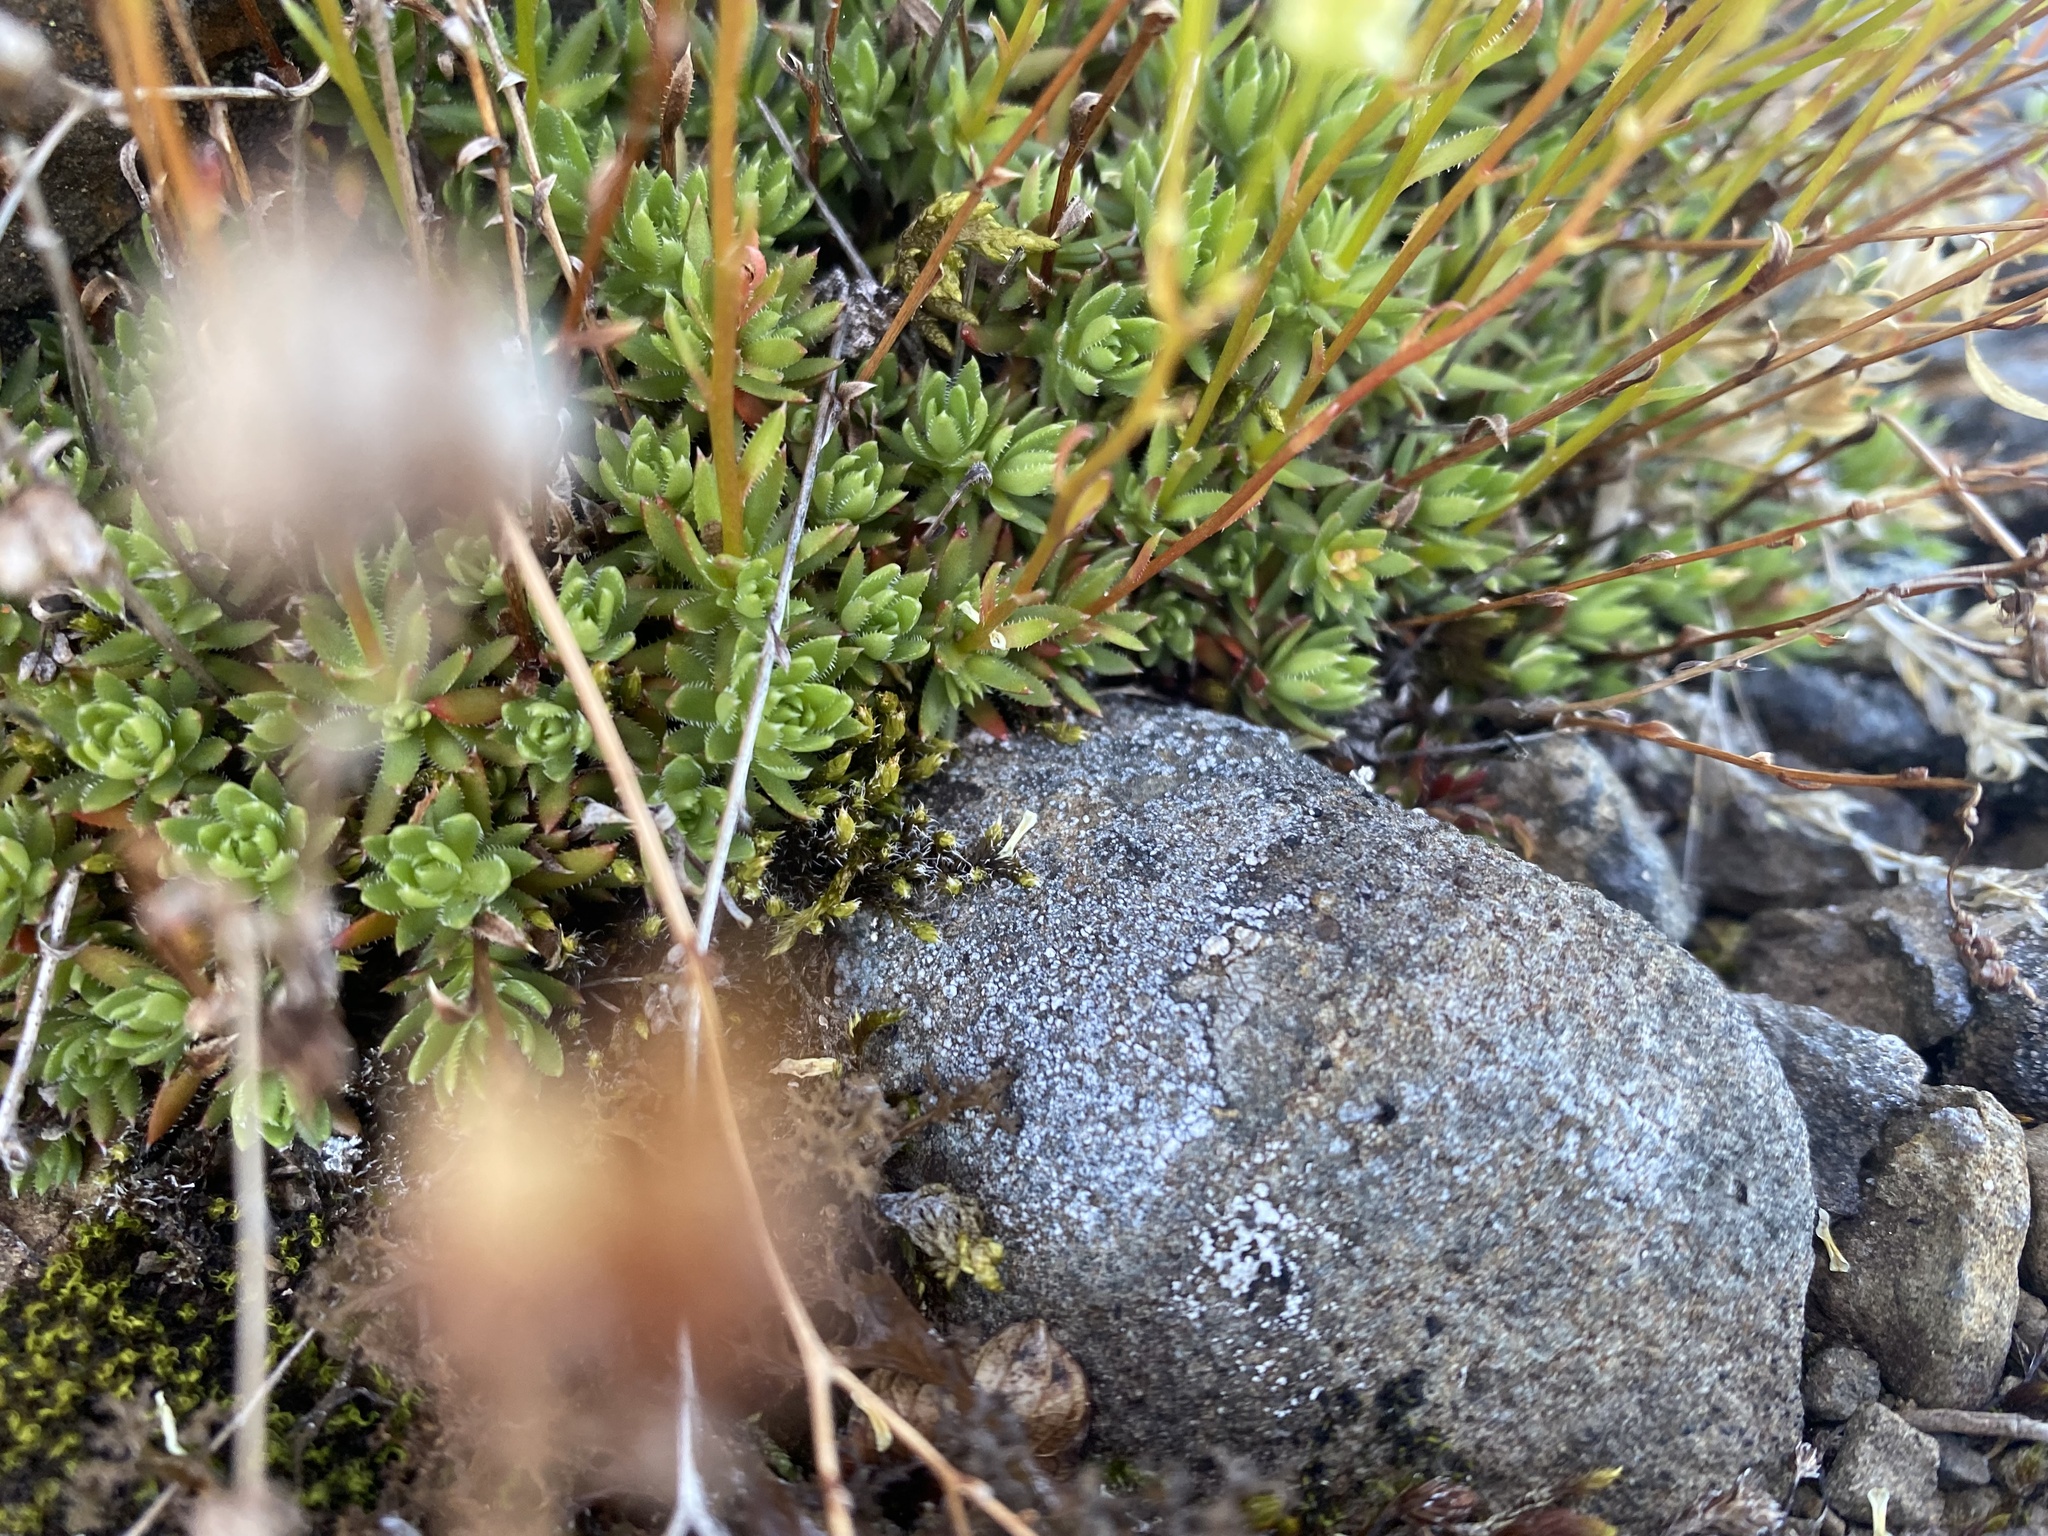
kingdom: Plantae
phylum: Tracheophyta
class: Magnoliopsida
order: Saxifragales
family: Saxifragaceae
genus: Saxifraga
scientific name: Saxifraga
